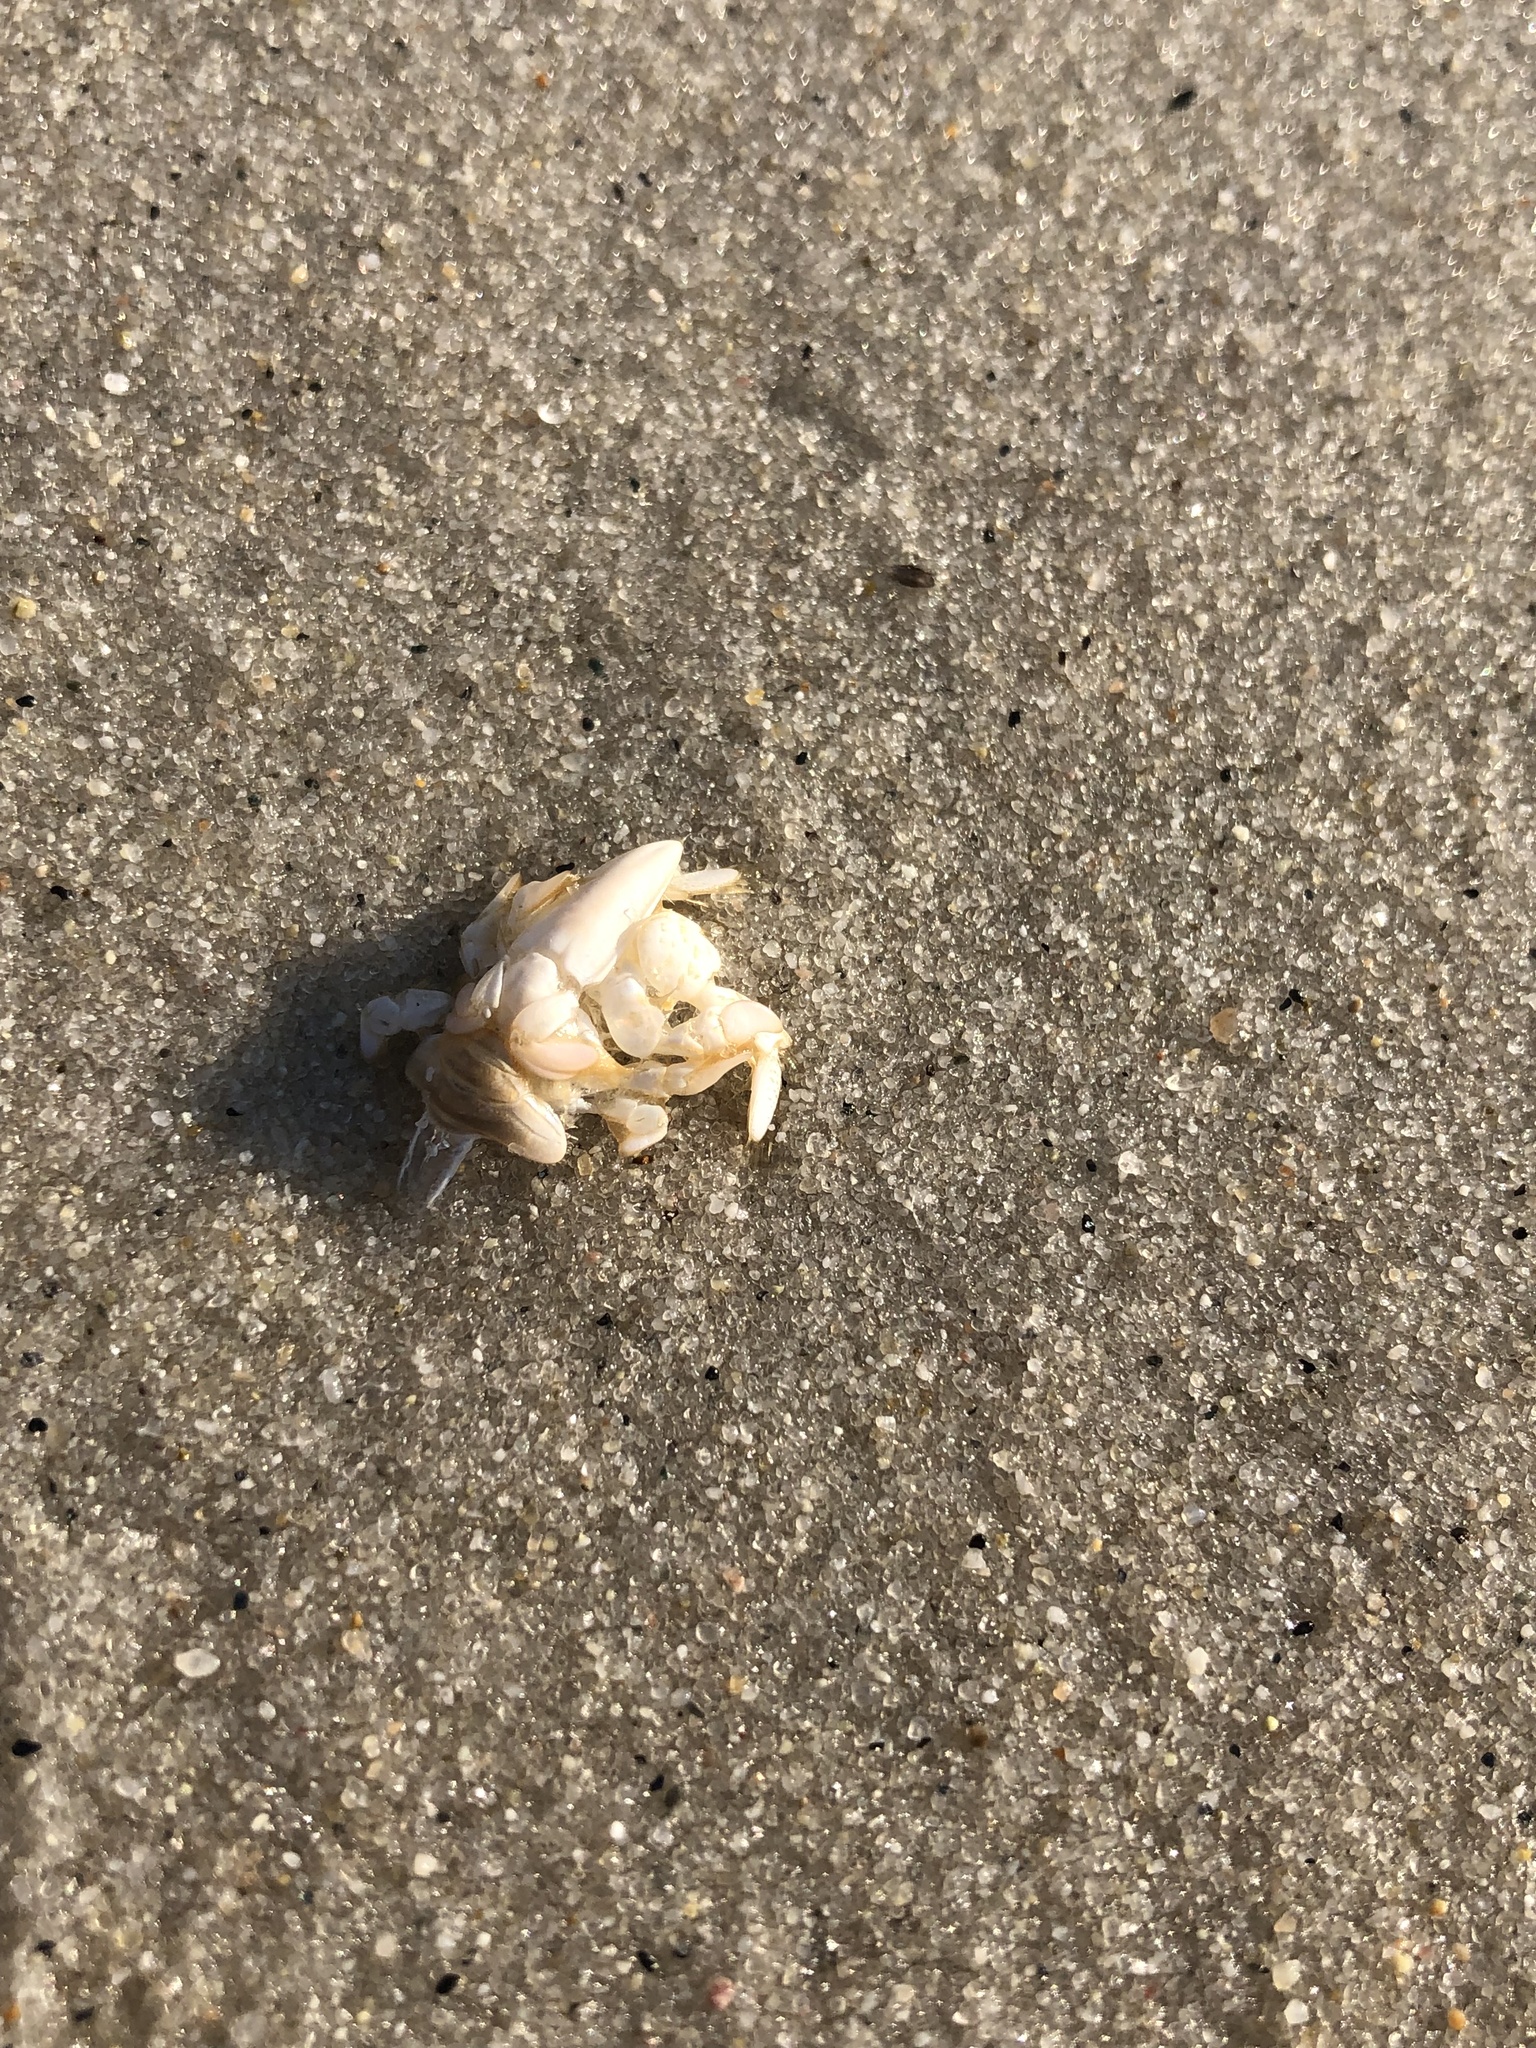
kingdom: Animalia
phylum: Arthropoda
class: Malacostraca
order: Decapoda
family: Hippidae
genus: Emerita
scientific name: Emerita talpoida
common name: Atlantic sand crab
